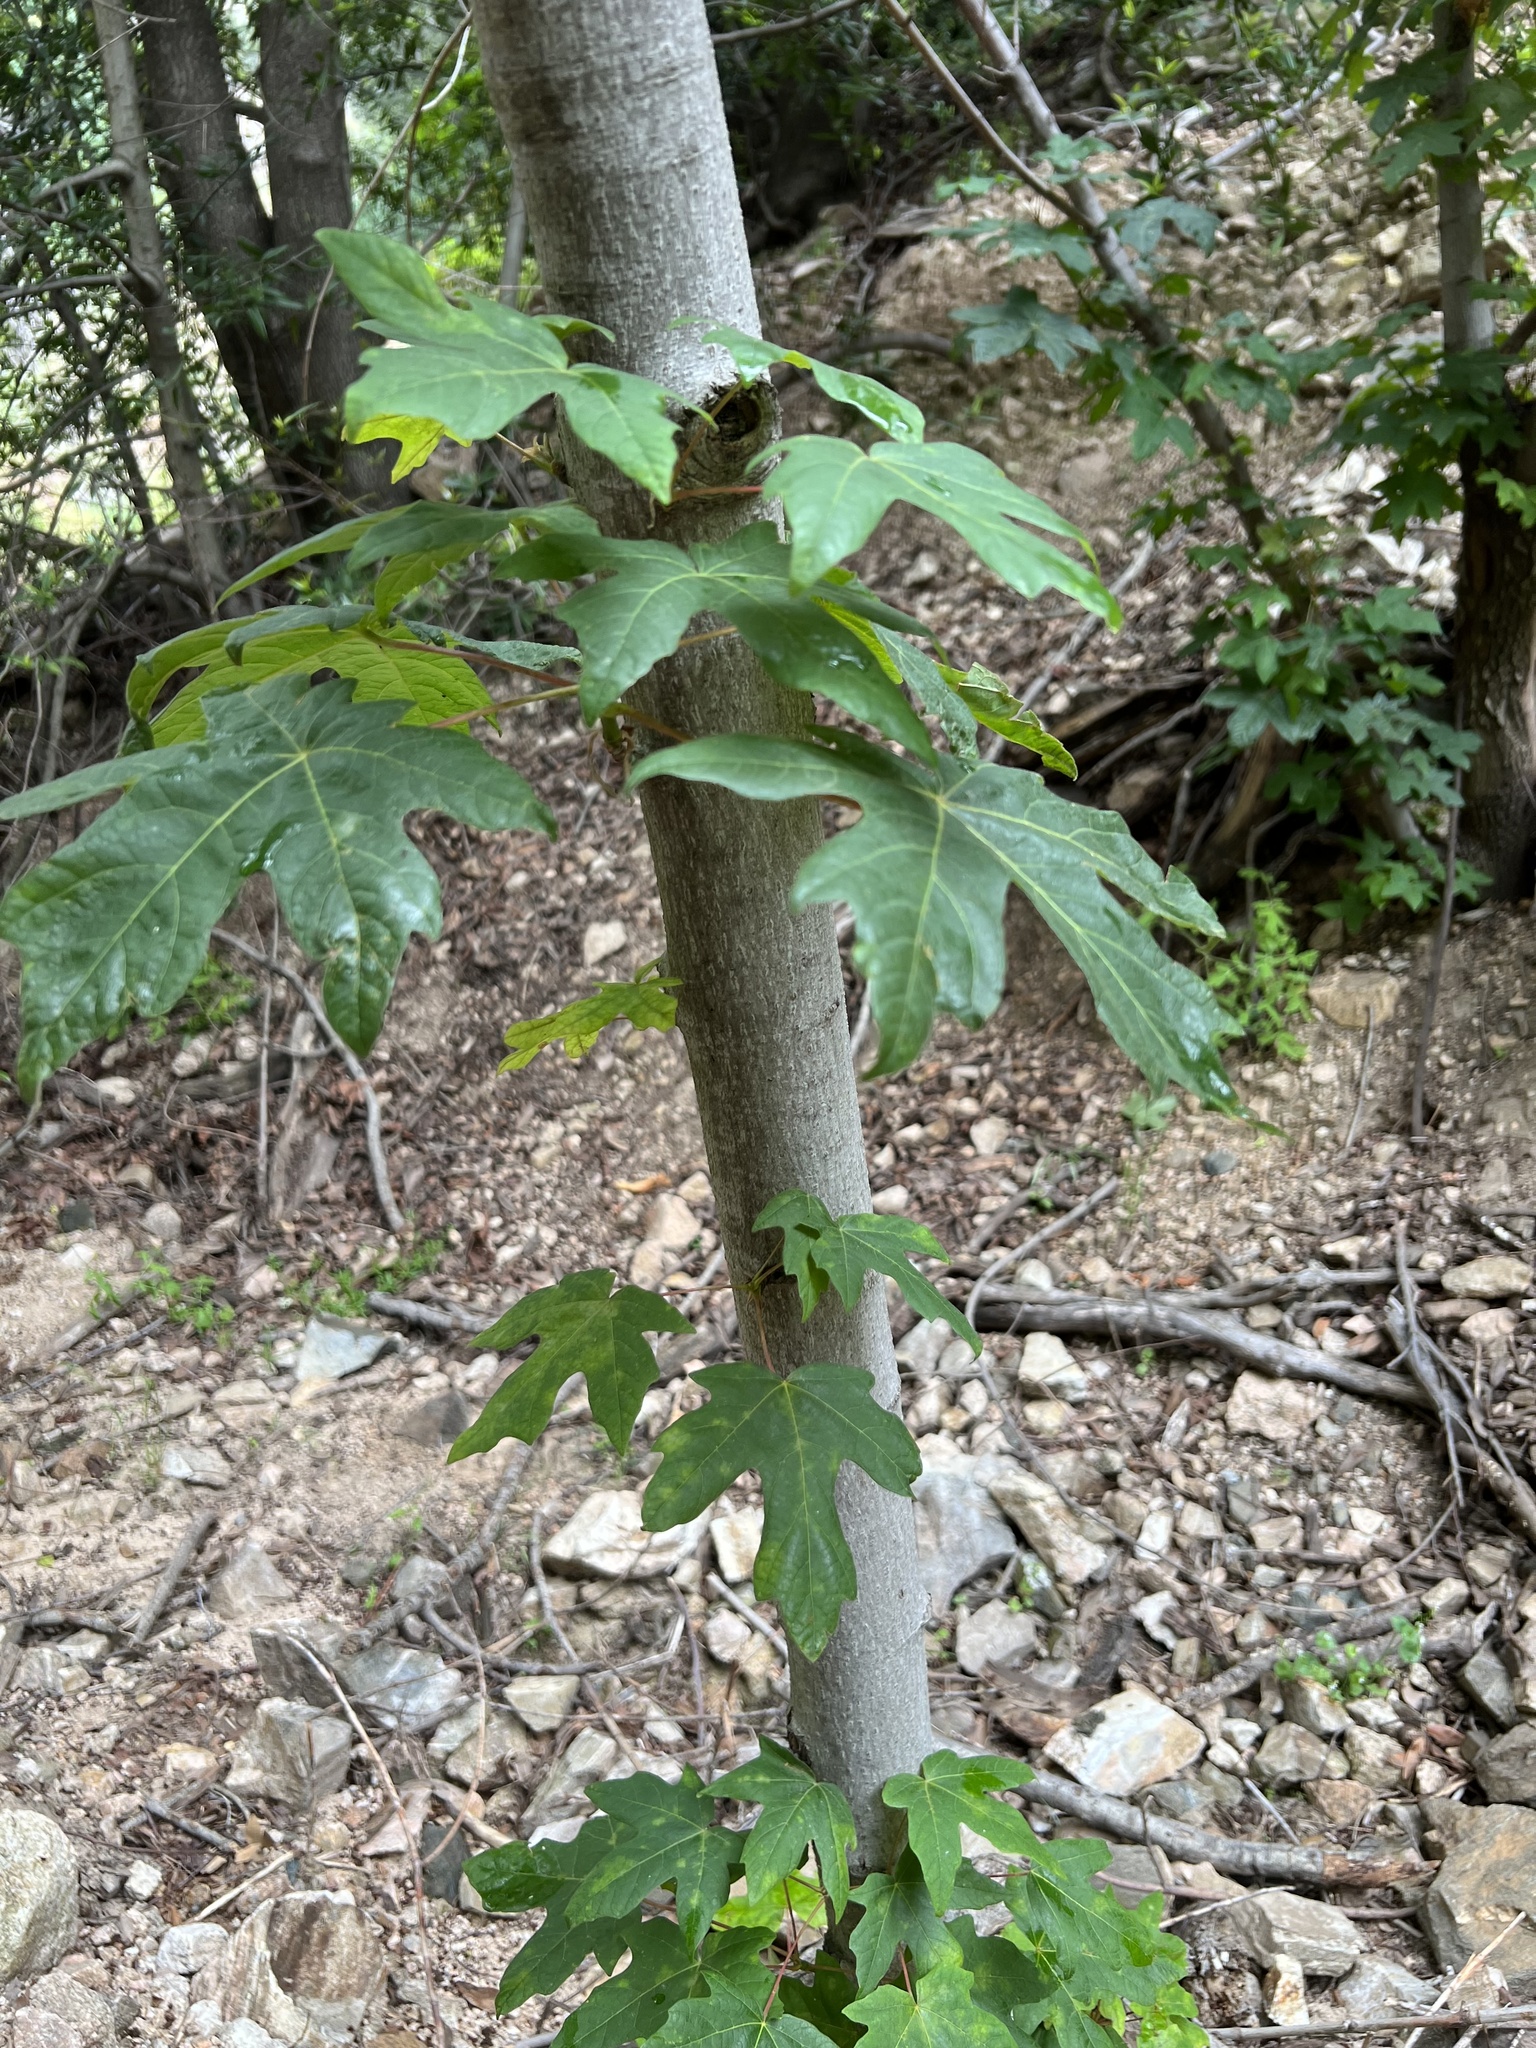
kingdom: Plantae
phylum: Tracheophyta
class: Magnoliopsida
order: Sapindales
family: Sapindaceae
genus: Acer
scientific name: Acer macrophyllum
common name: Oregon maple
